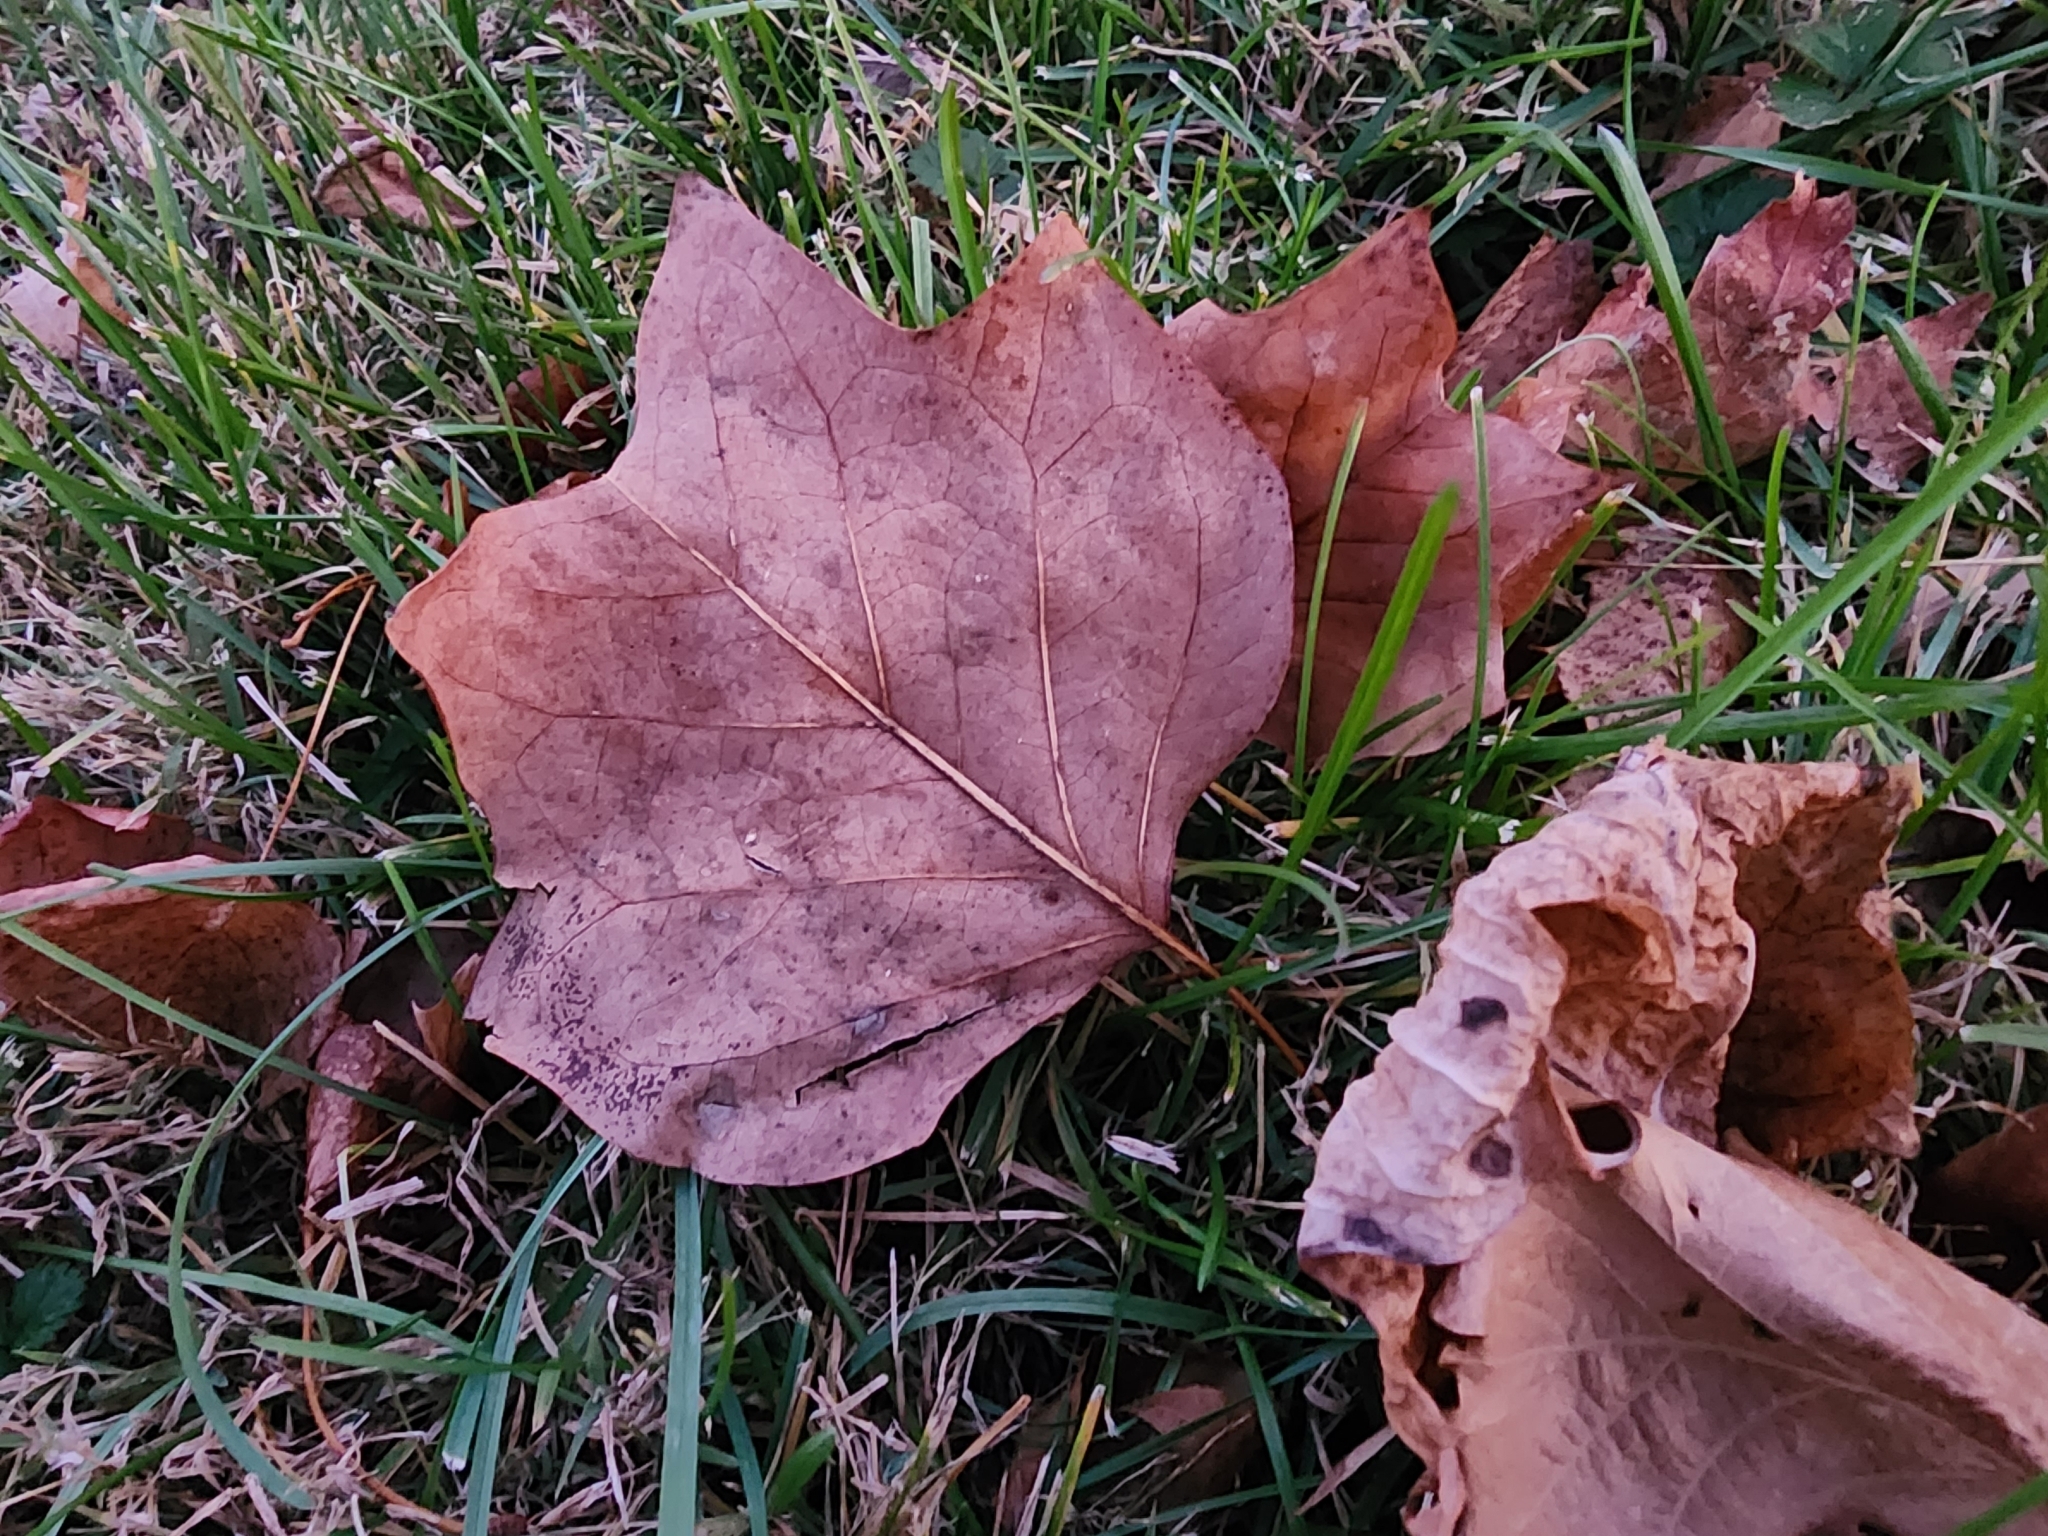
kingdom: Plantae
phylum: Tracheophyta
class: Magnoliopsida
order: Magnoliales
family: Magnoliaceae
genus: Liriodendron
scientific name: Liriodendron tulipifera
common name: Tulip tree
